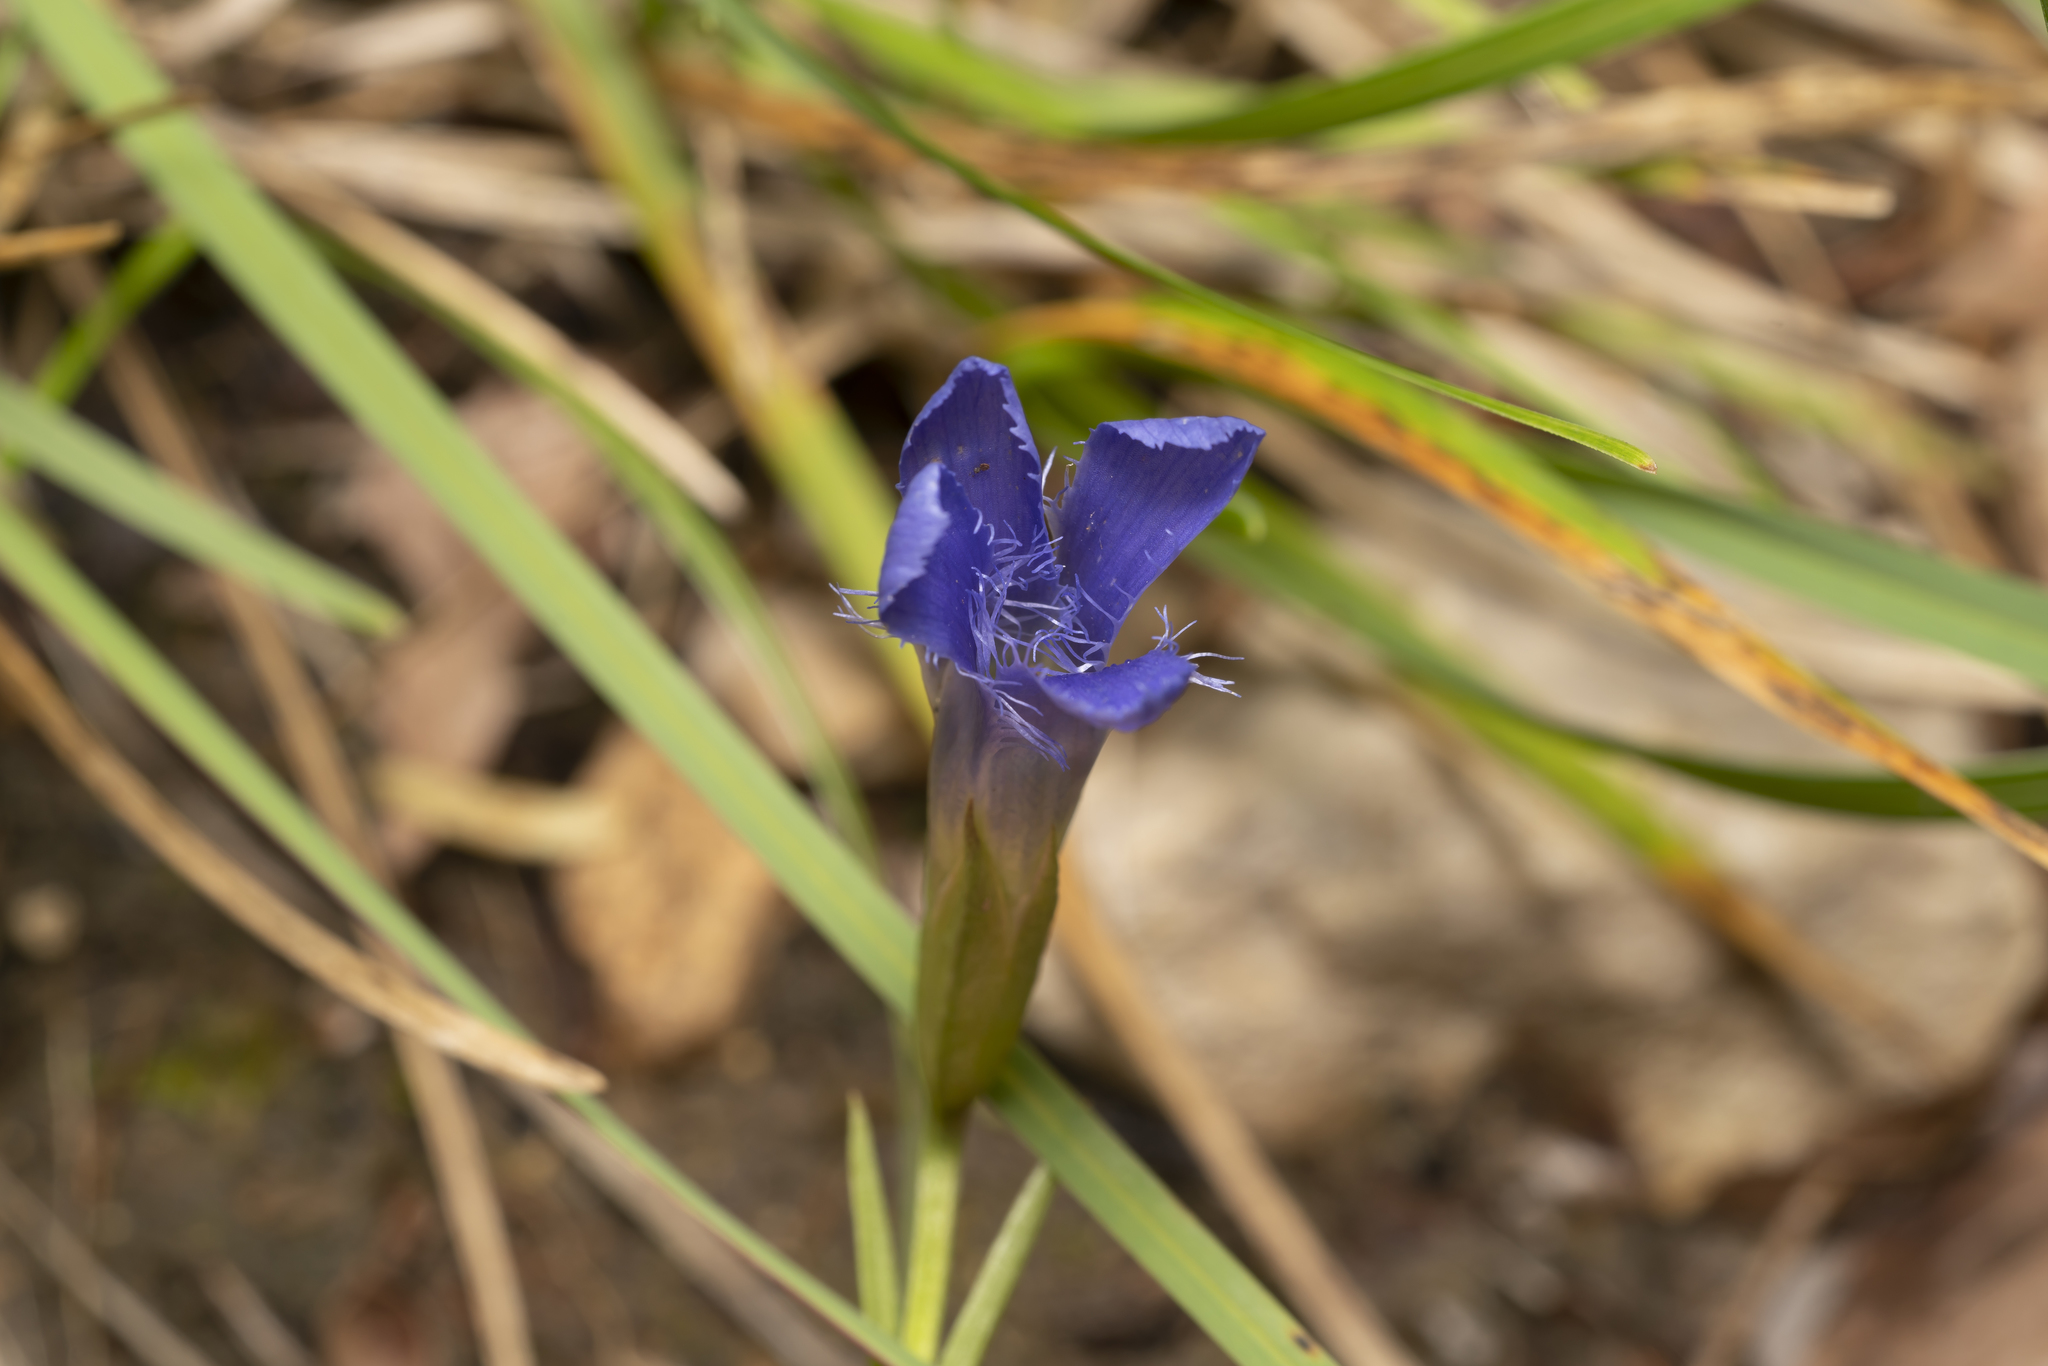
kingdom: Plantae
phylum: Tracheophyta
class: Magnoliopsida
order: Gentianales
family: Gentianaceae
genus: Gentianopsis
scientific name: Gentianopsis ciliata
